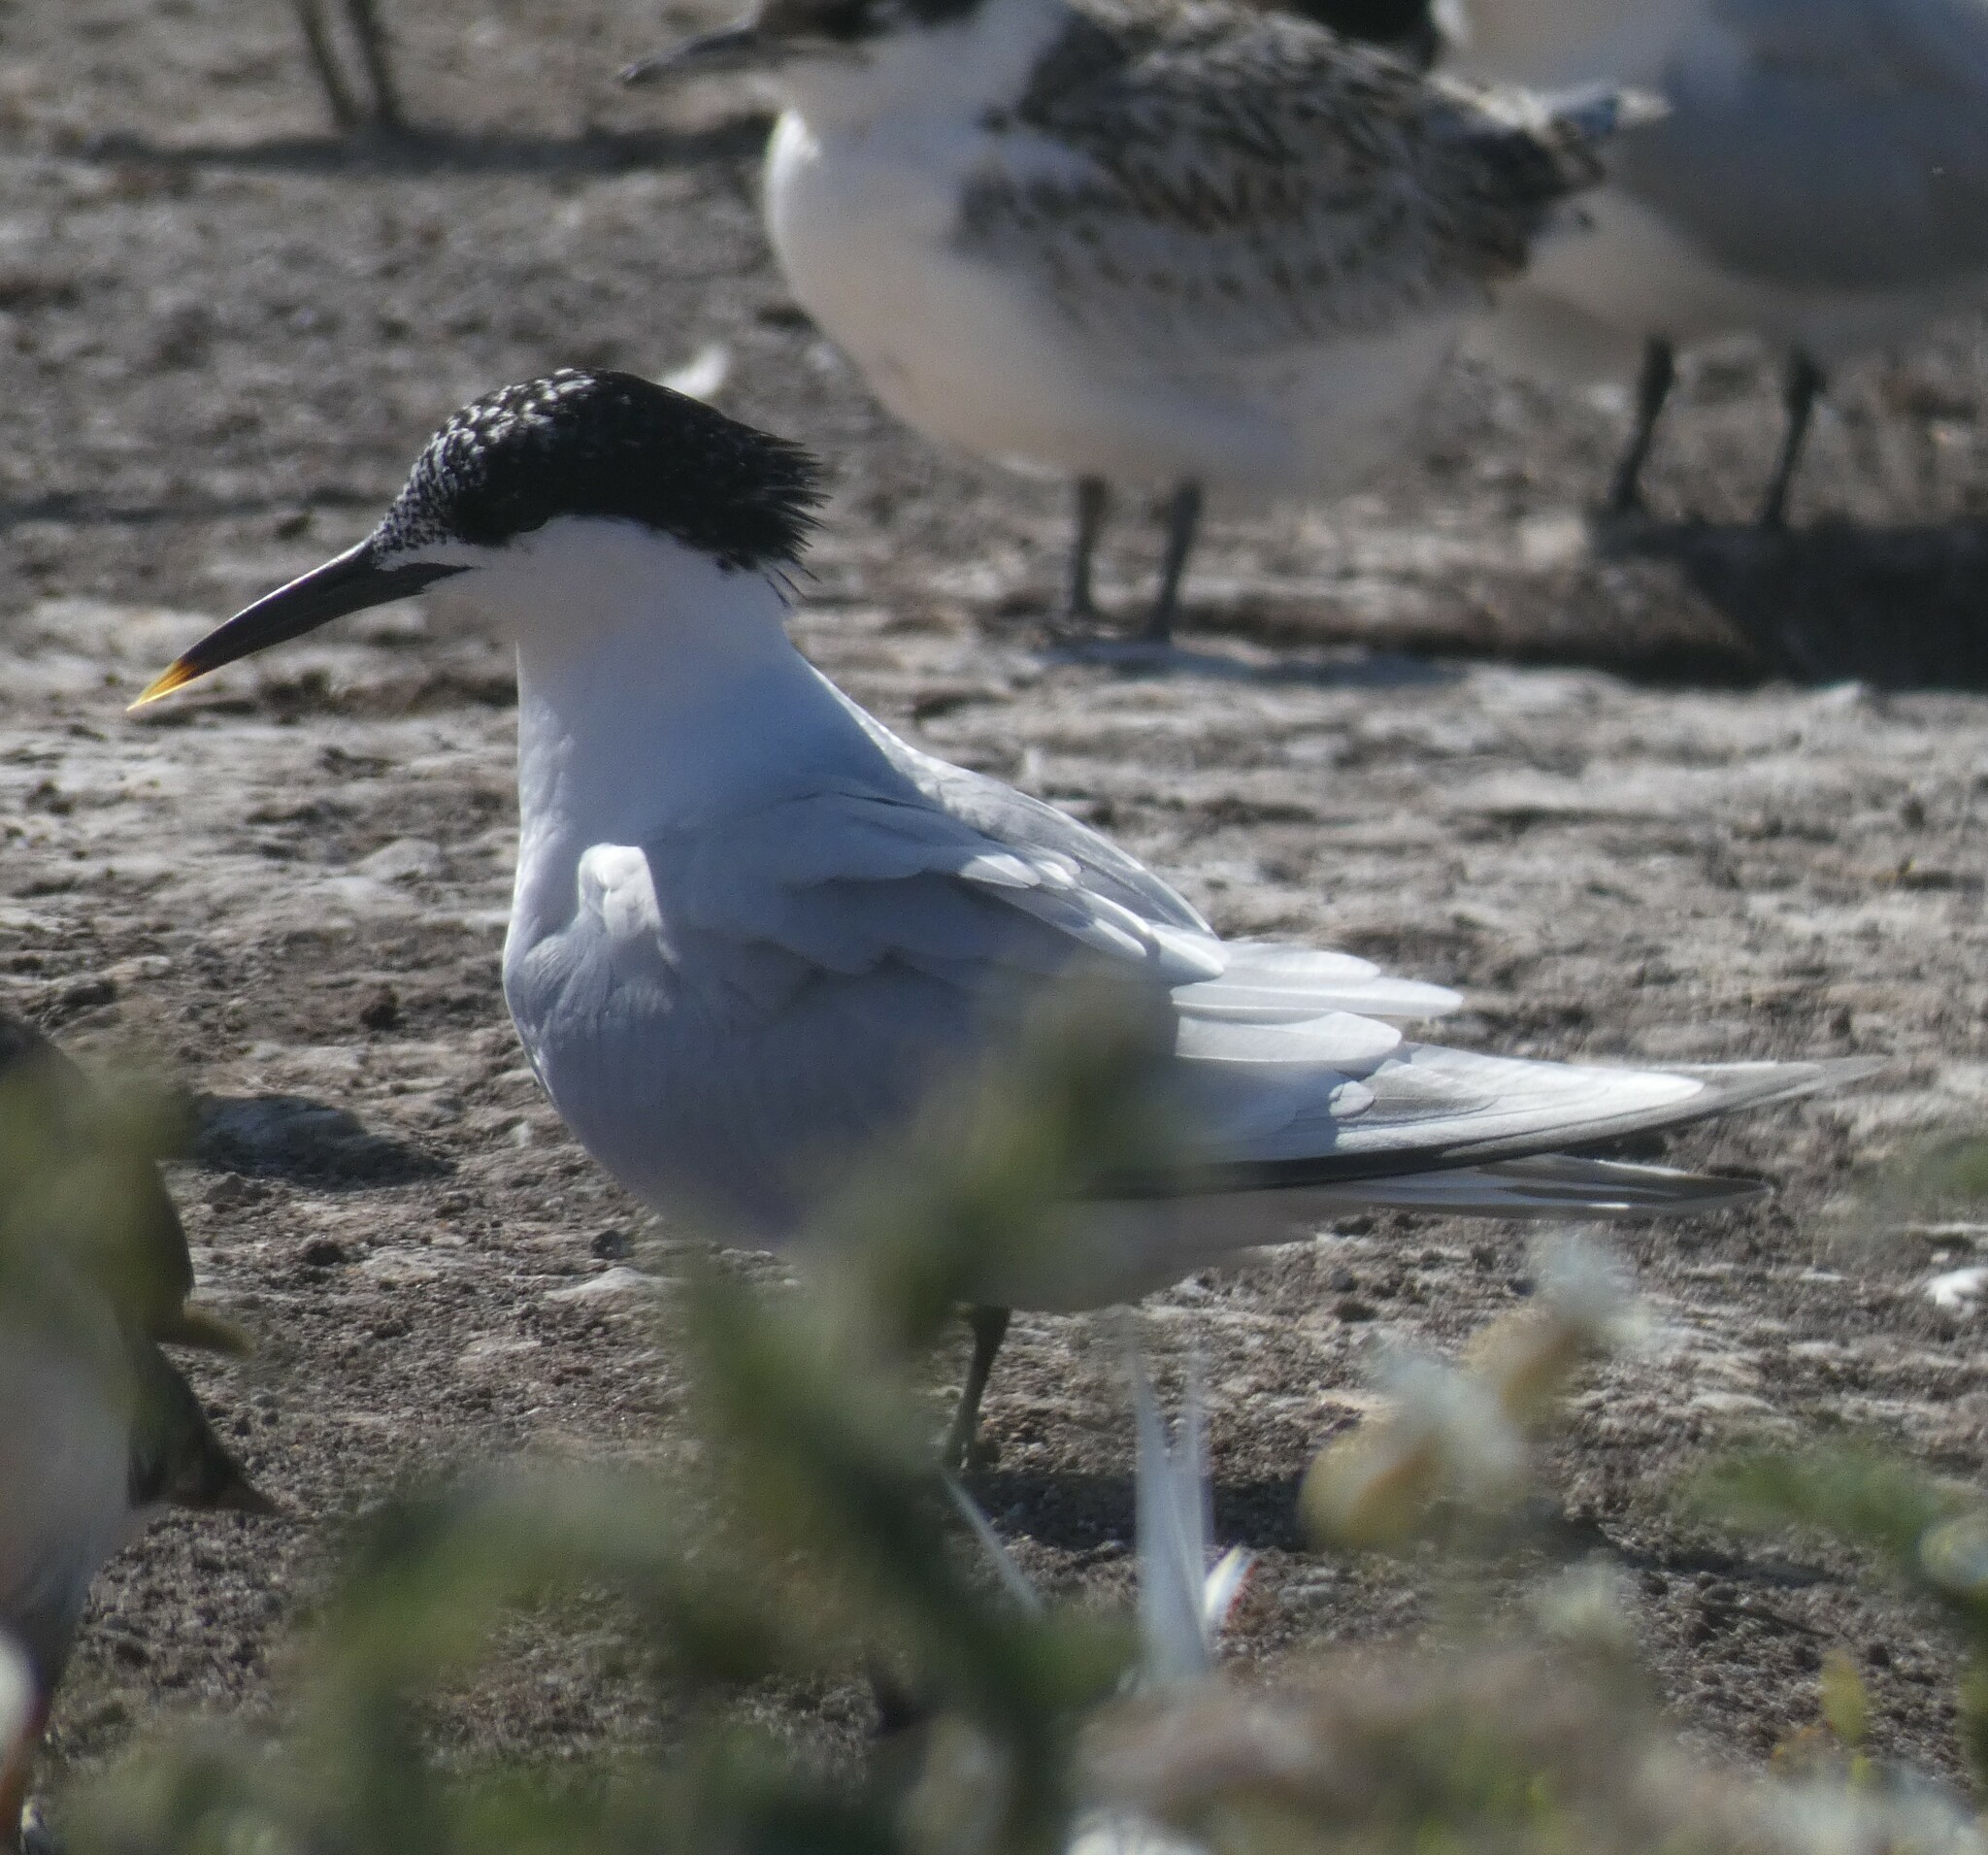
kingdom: Animalia
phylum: Chordata
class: Aves
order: Charadriiformes
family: Laridae
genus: Thalasseus
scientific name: Thalasseus sandvicensis
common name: Sandwich tern
